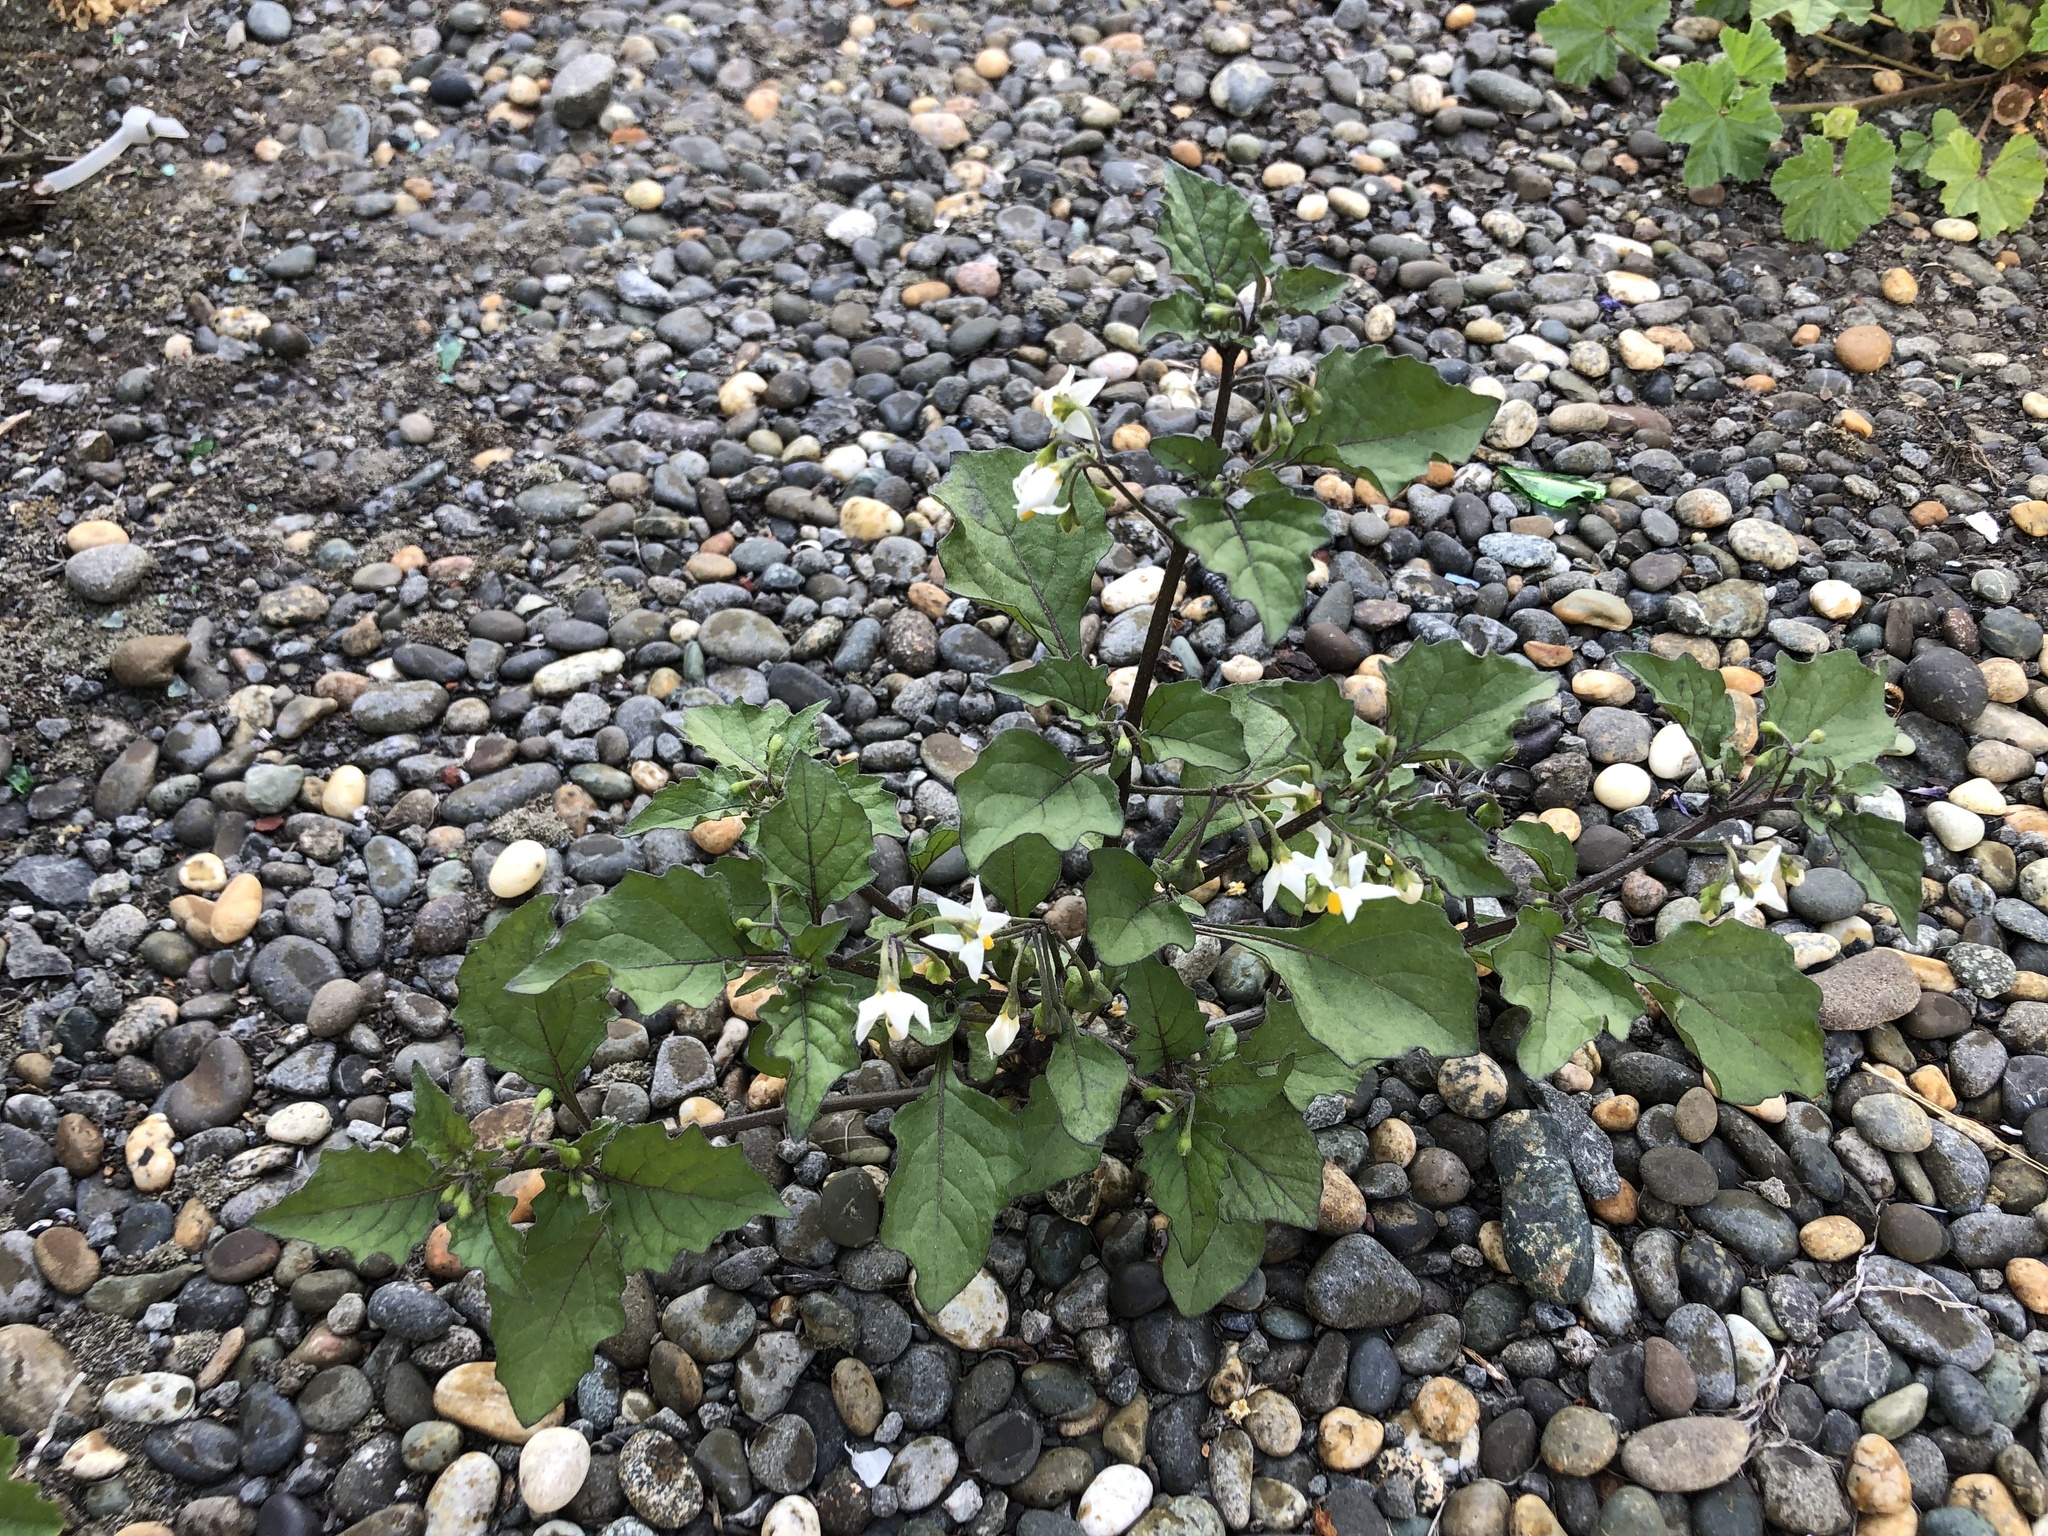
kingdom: Plantae
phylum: Tracheophyta
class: Magnoliopsida
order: Solanales
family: Solanaceae
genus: Solanum
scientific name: Solanum nigrum
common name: Black nightshade
